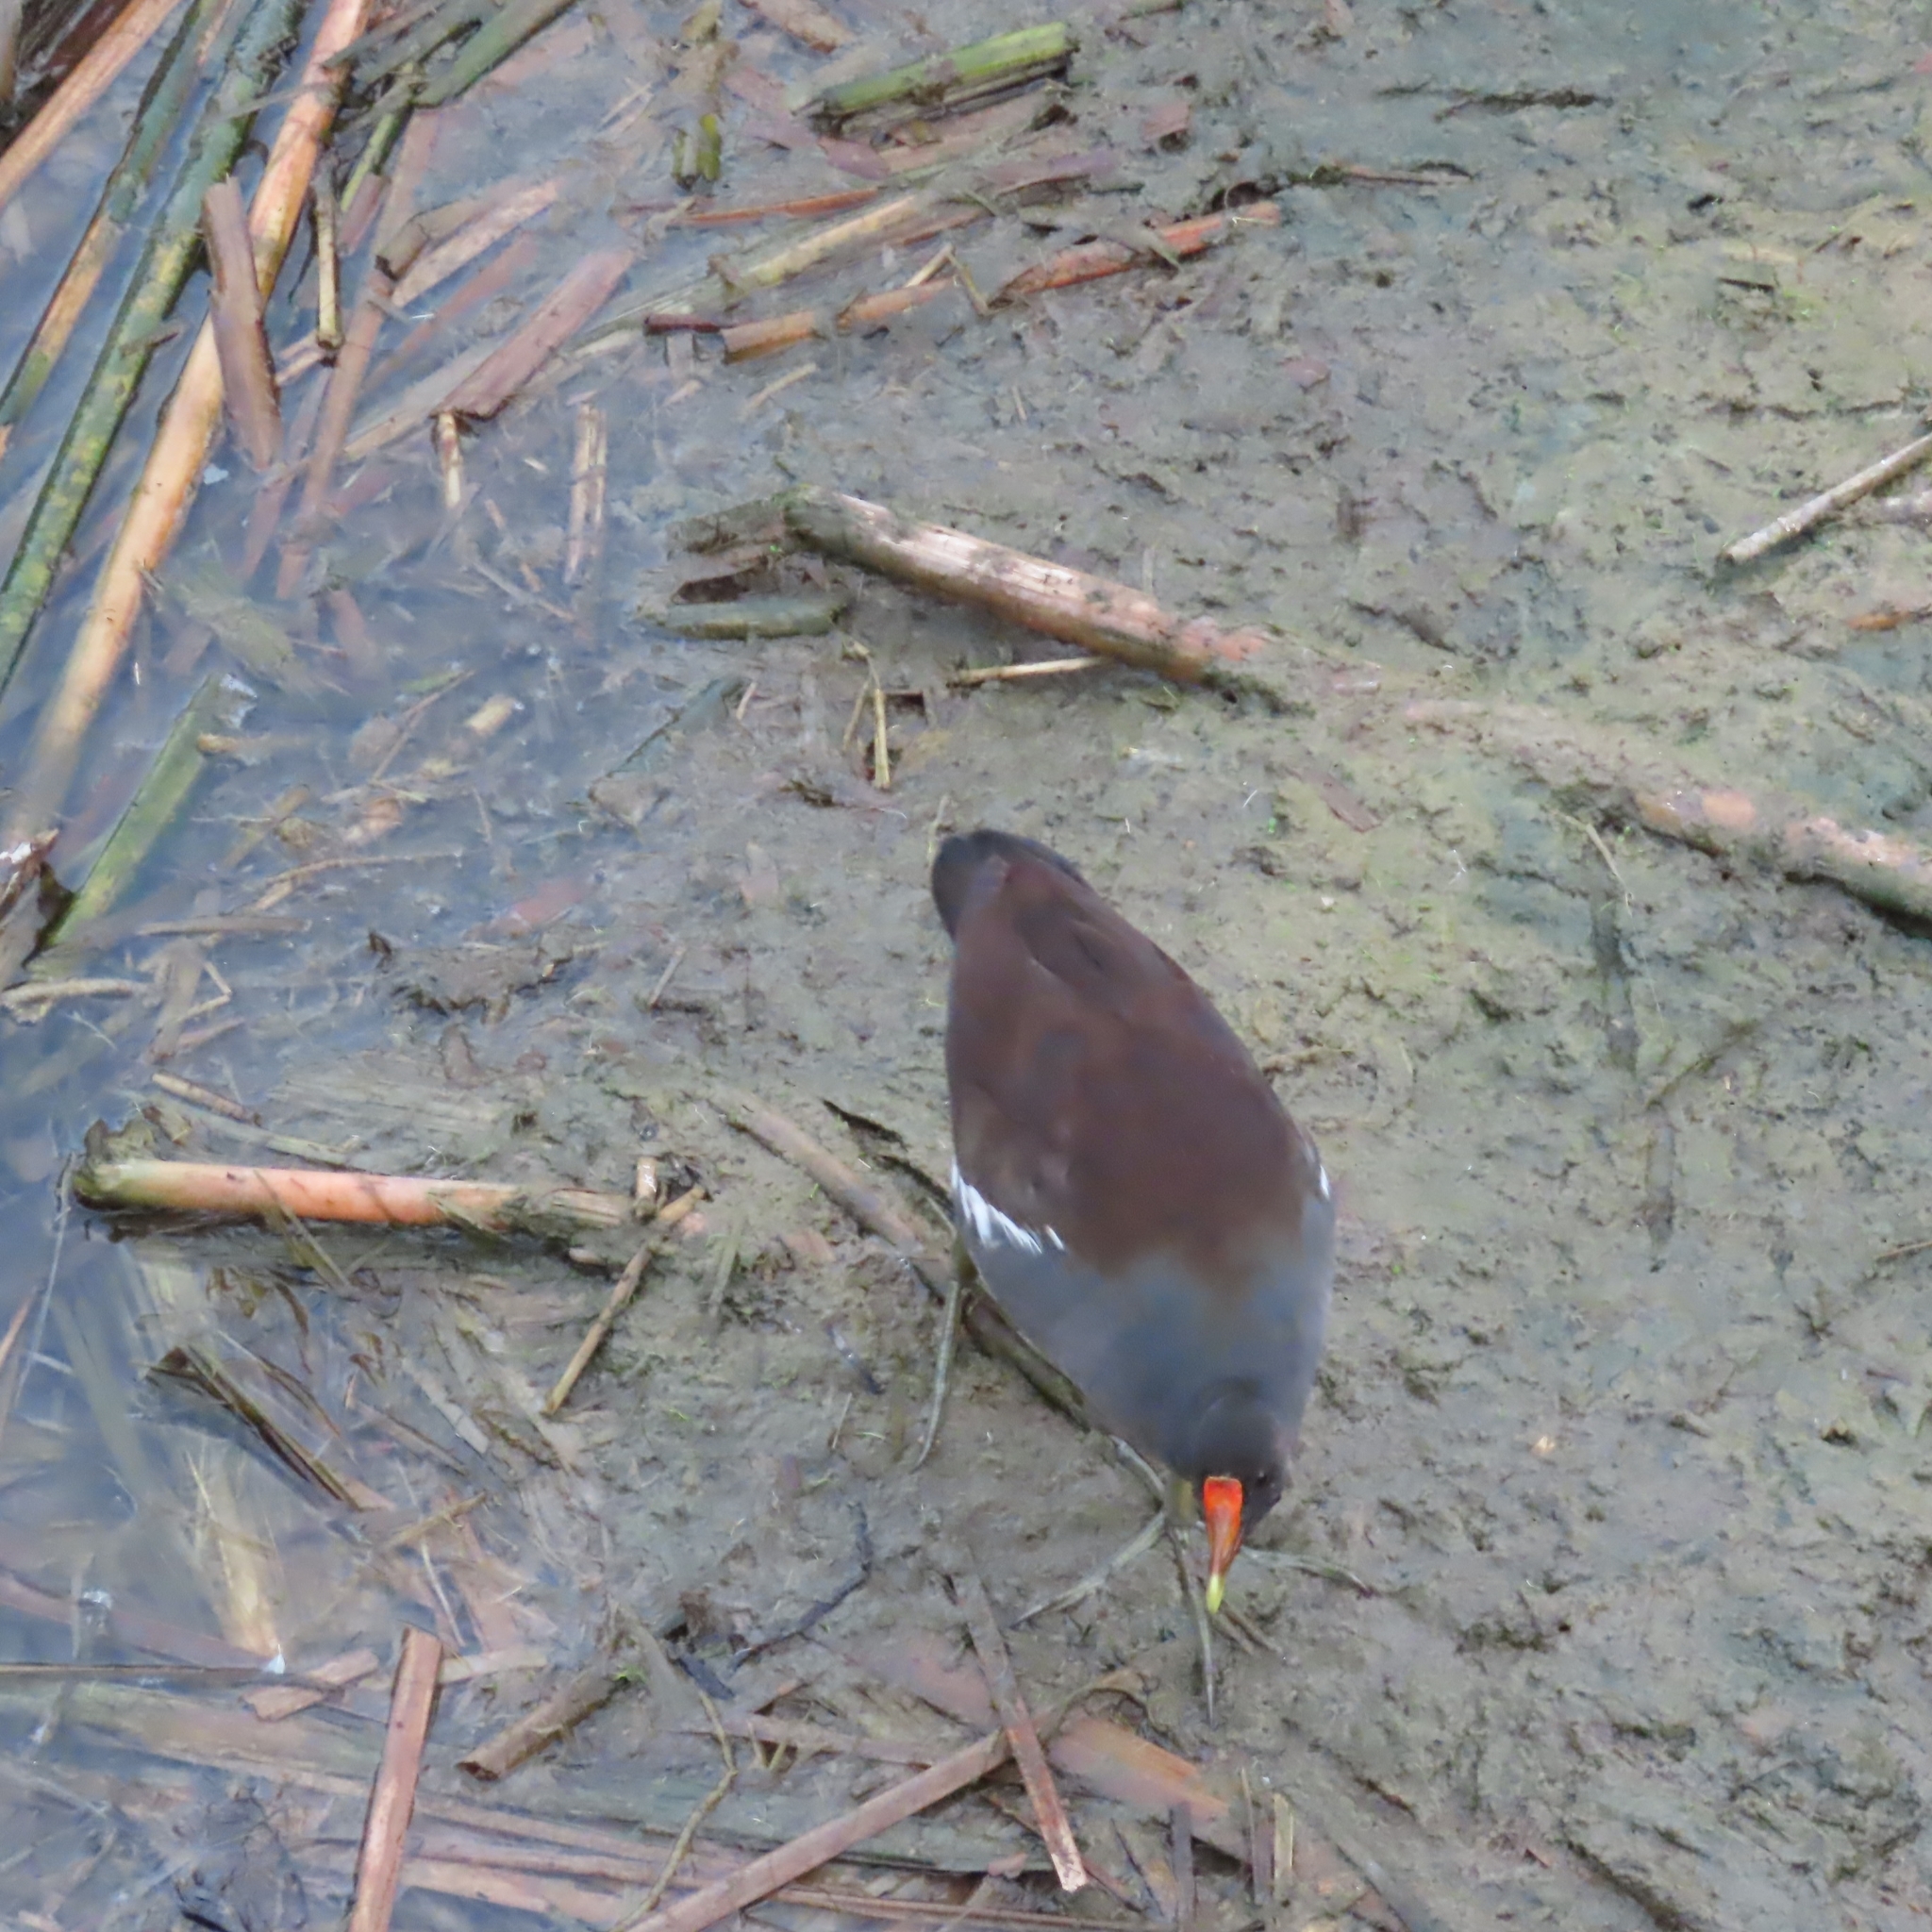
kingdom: Animalia
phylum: Chordata
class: Aves
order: Gruiformes
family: Rallidae
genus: Gallinula
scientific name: Gallinula chloropus
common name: Common moorhen
